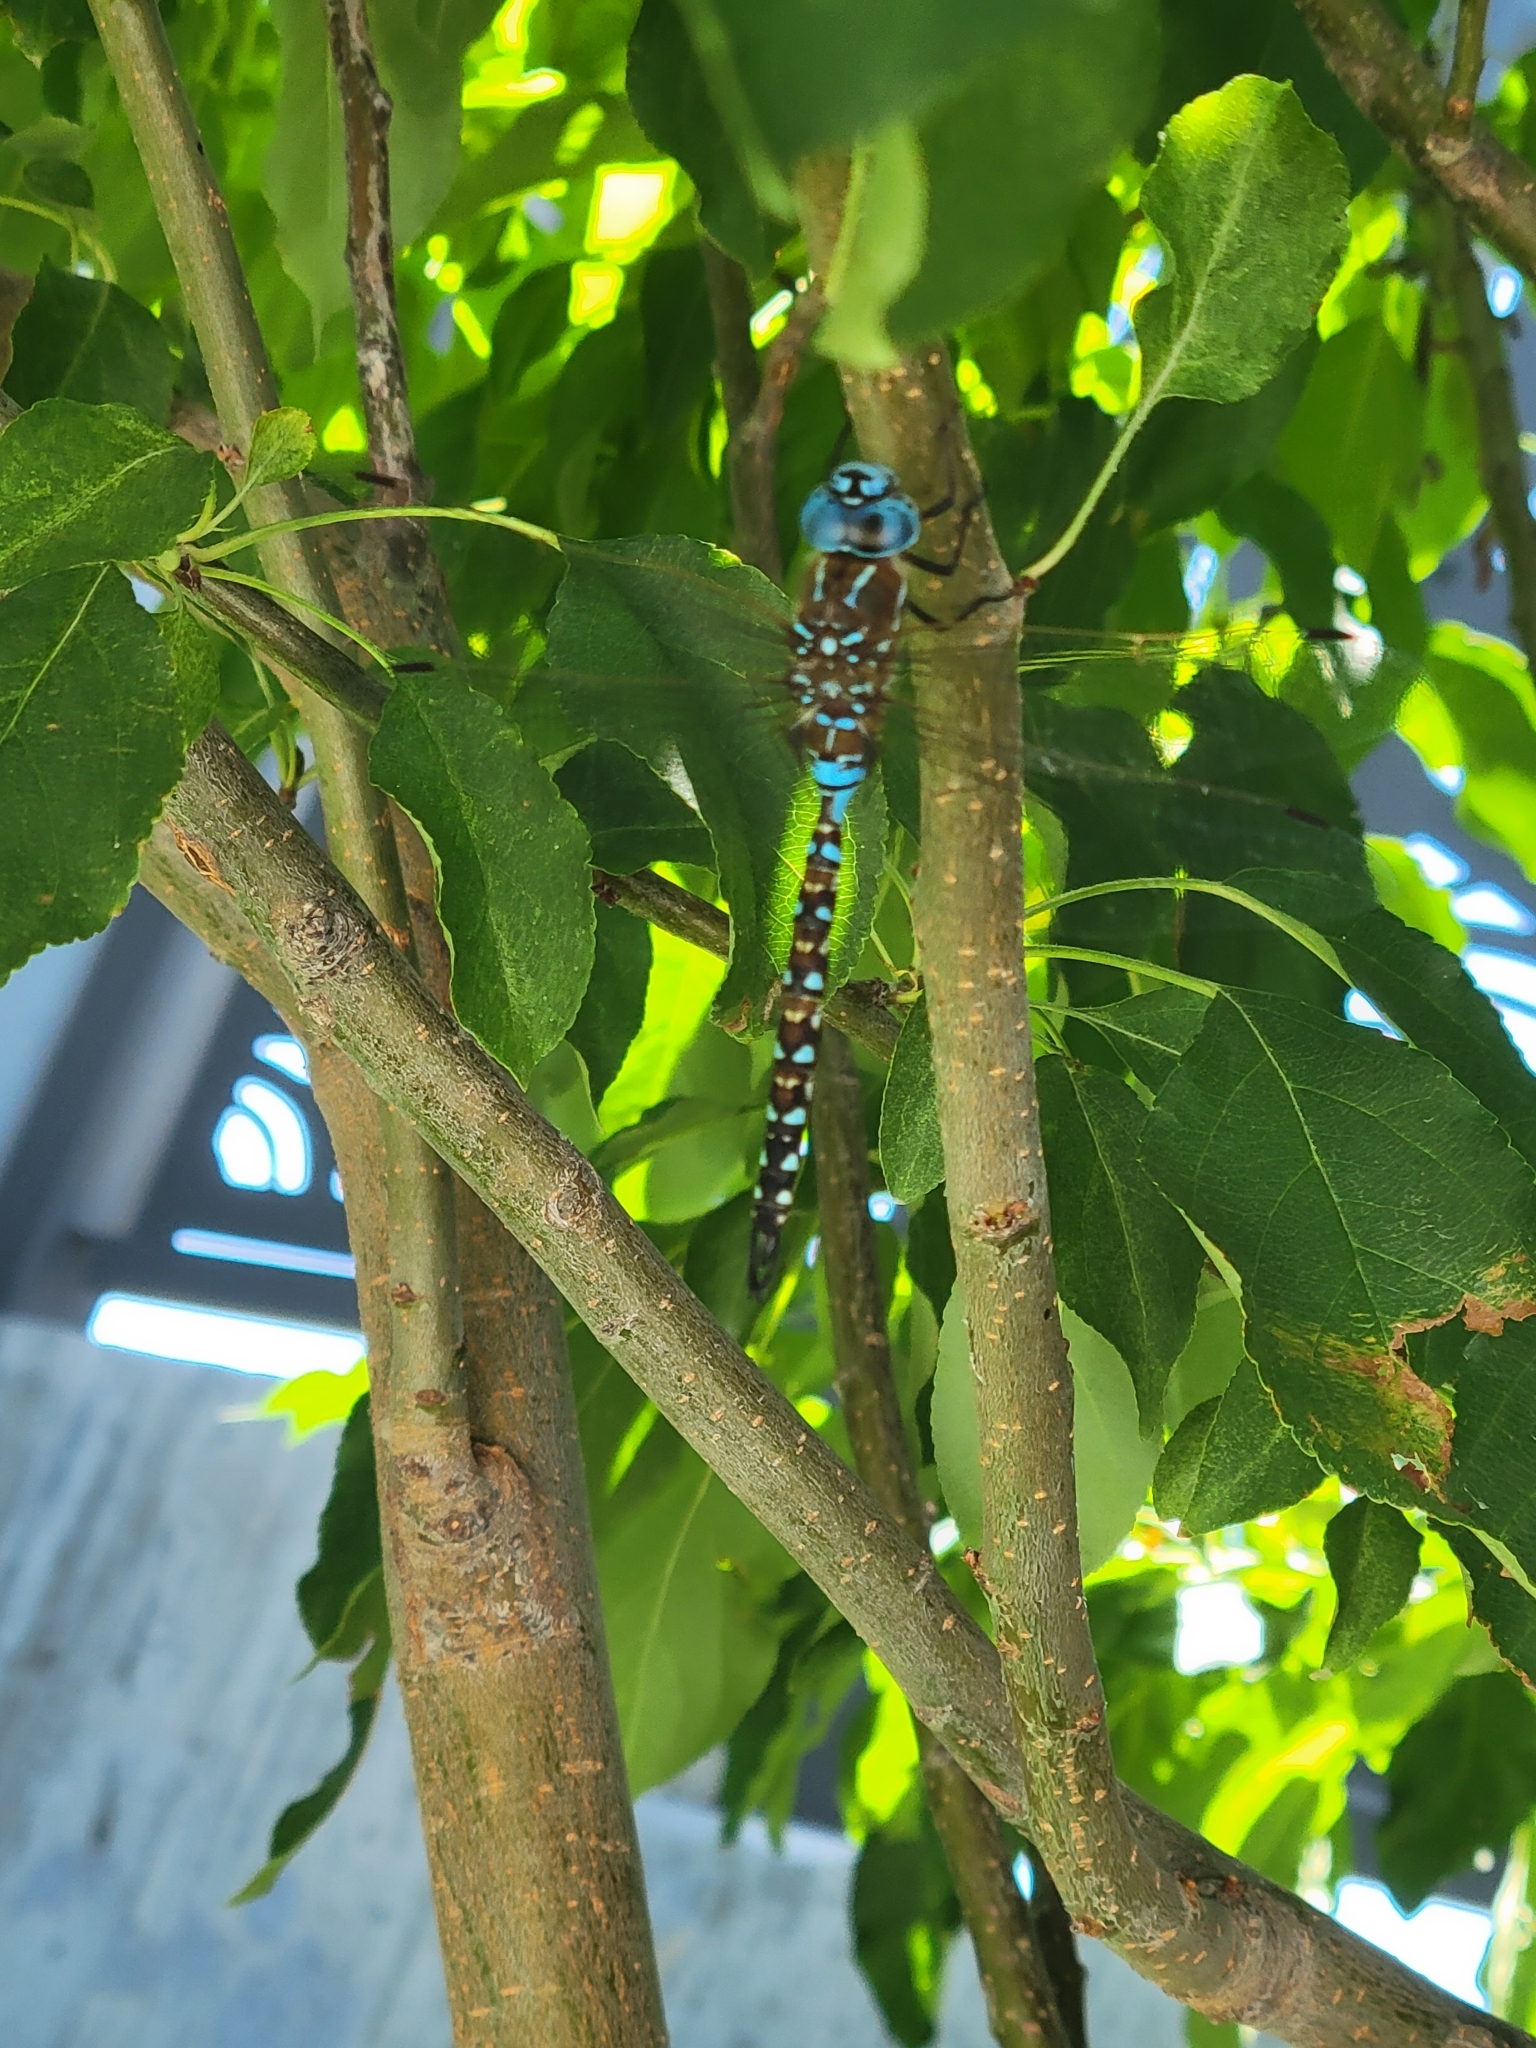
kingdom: Animalia
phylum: Arthropoda
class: Insecta
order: Odonata
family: Aeshnidae
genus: Rhionaeschna
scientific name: Rhionaeschna multicolor
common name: Blue-eyed darner
